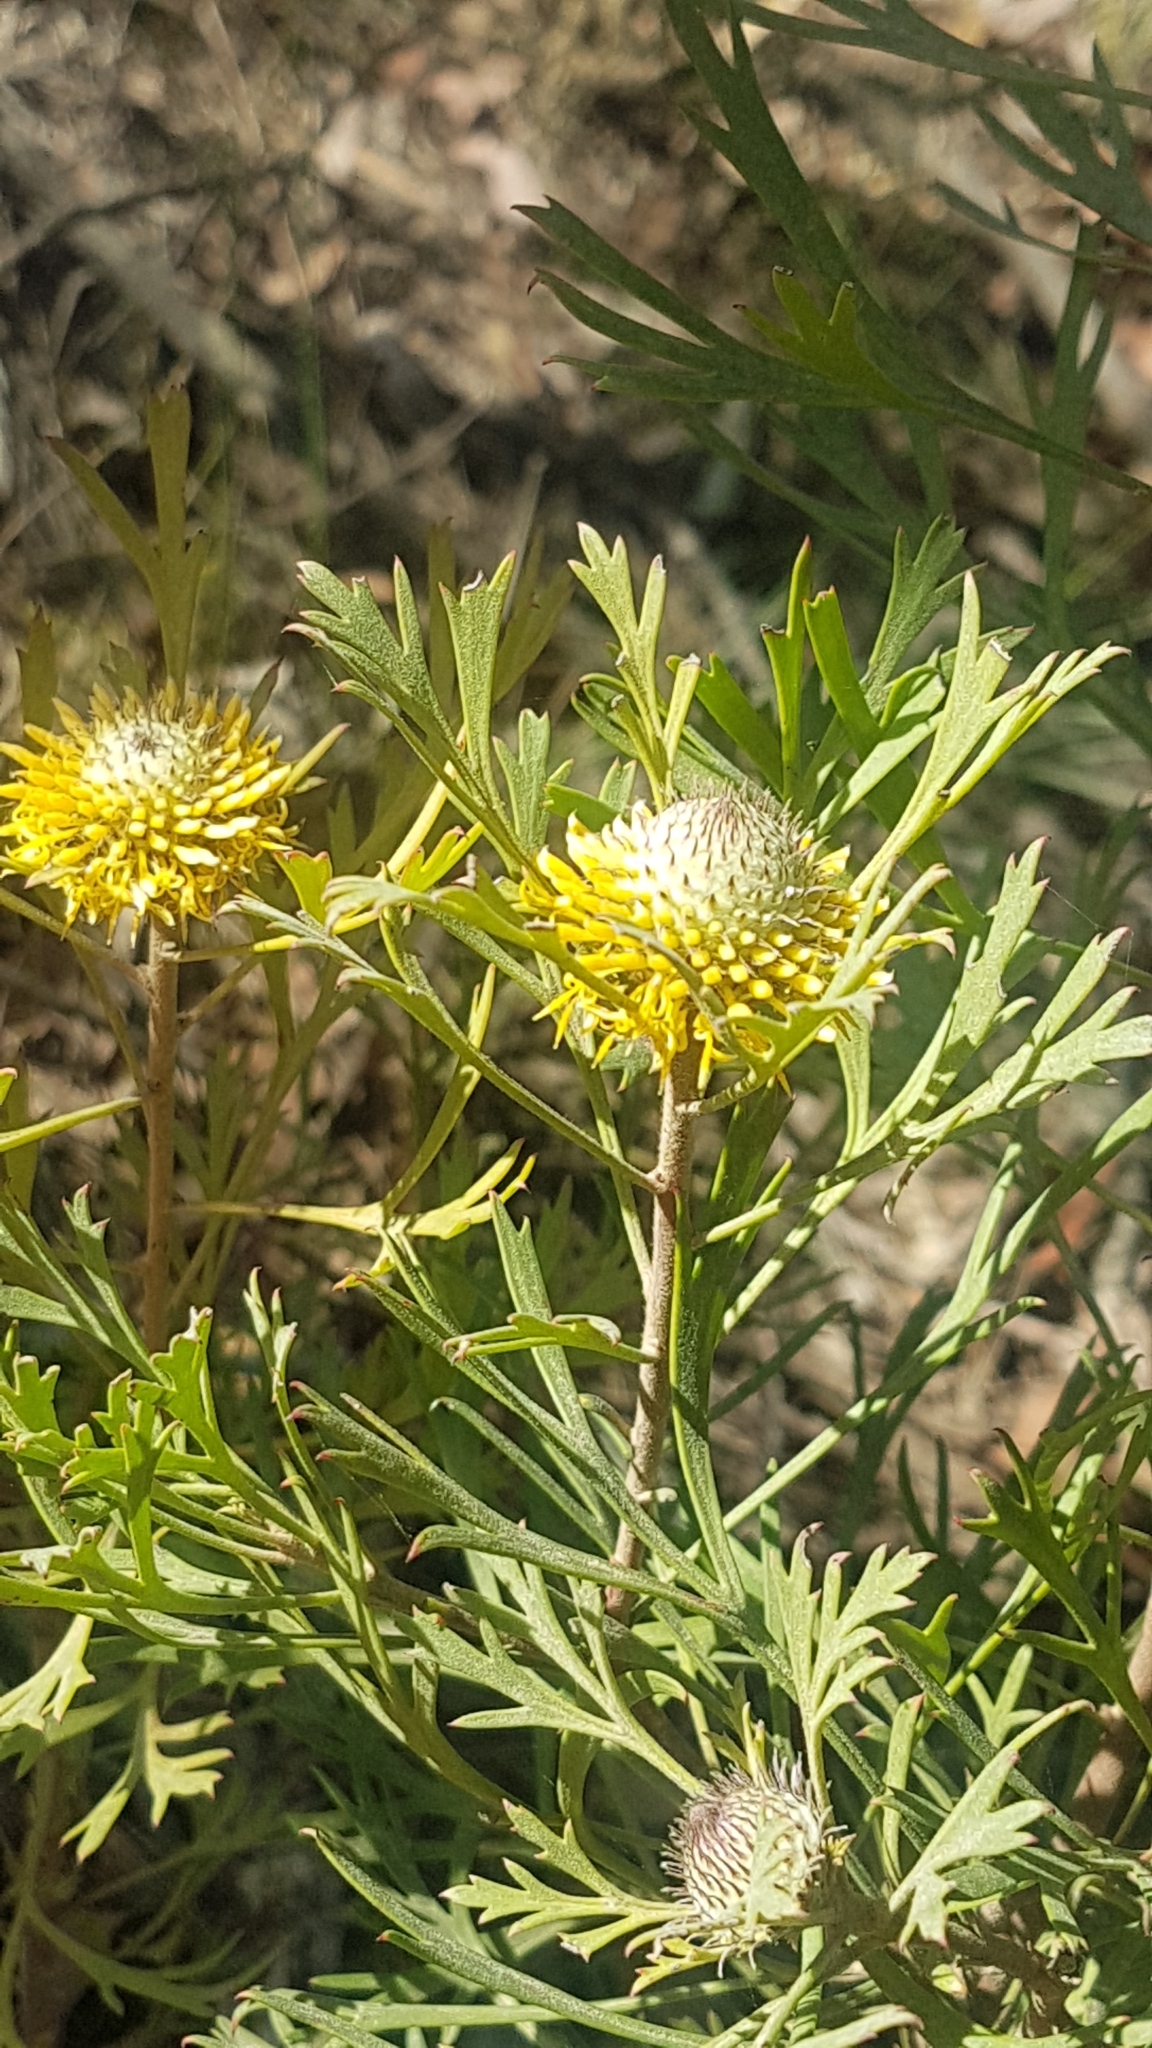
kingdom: Plantae
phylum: Tracheophyta
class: Magnoliopsida
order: Proteales
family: Proteaceae
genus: Isopogon
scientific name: Isopogon anemonifolius
